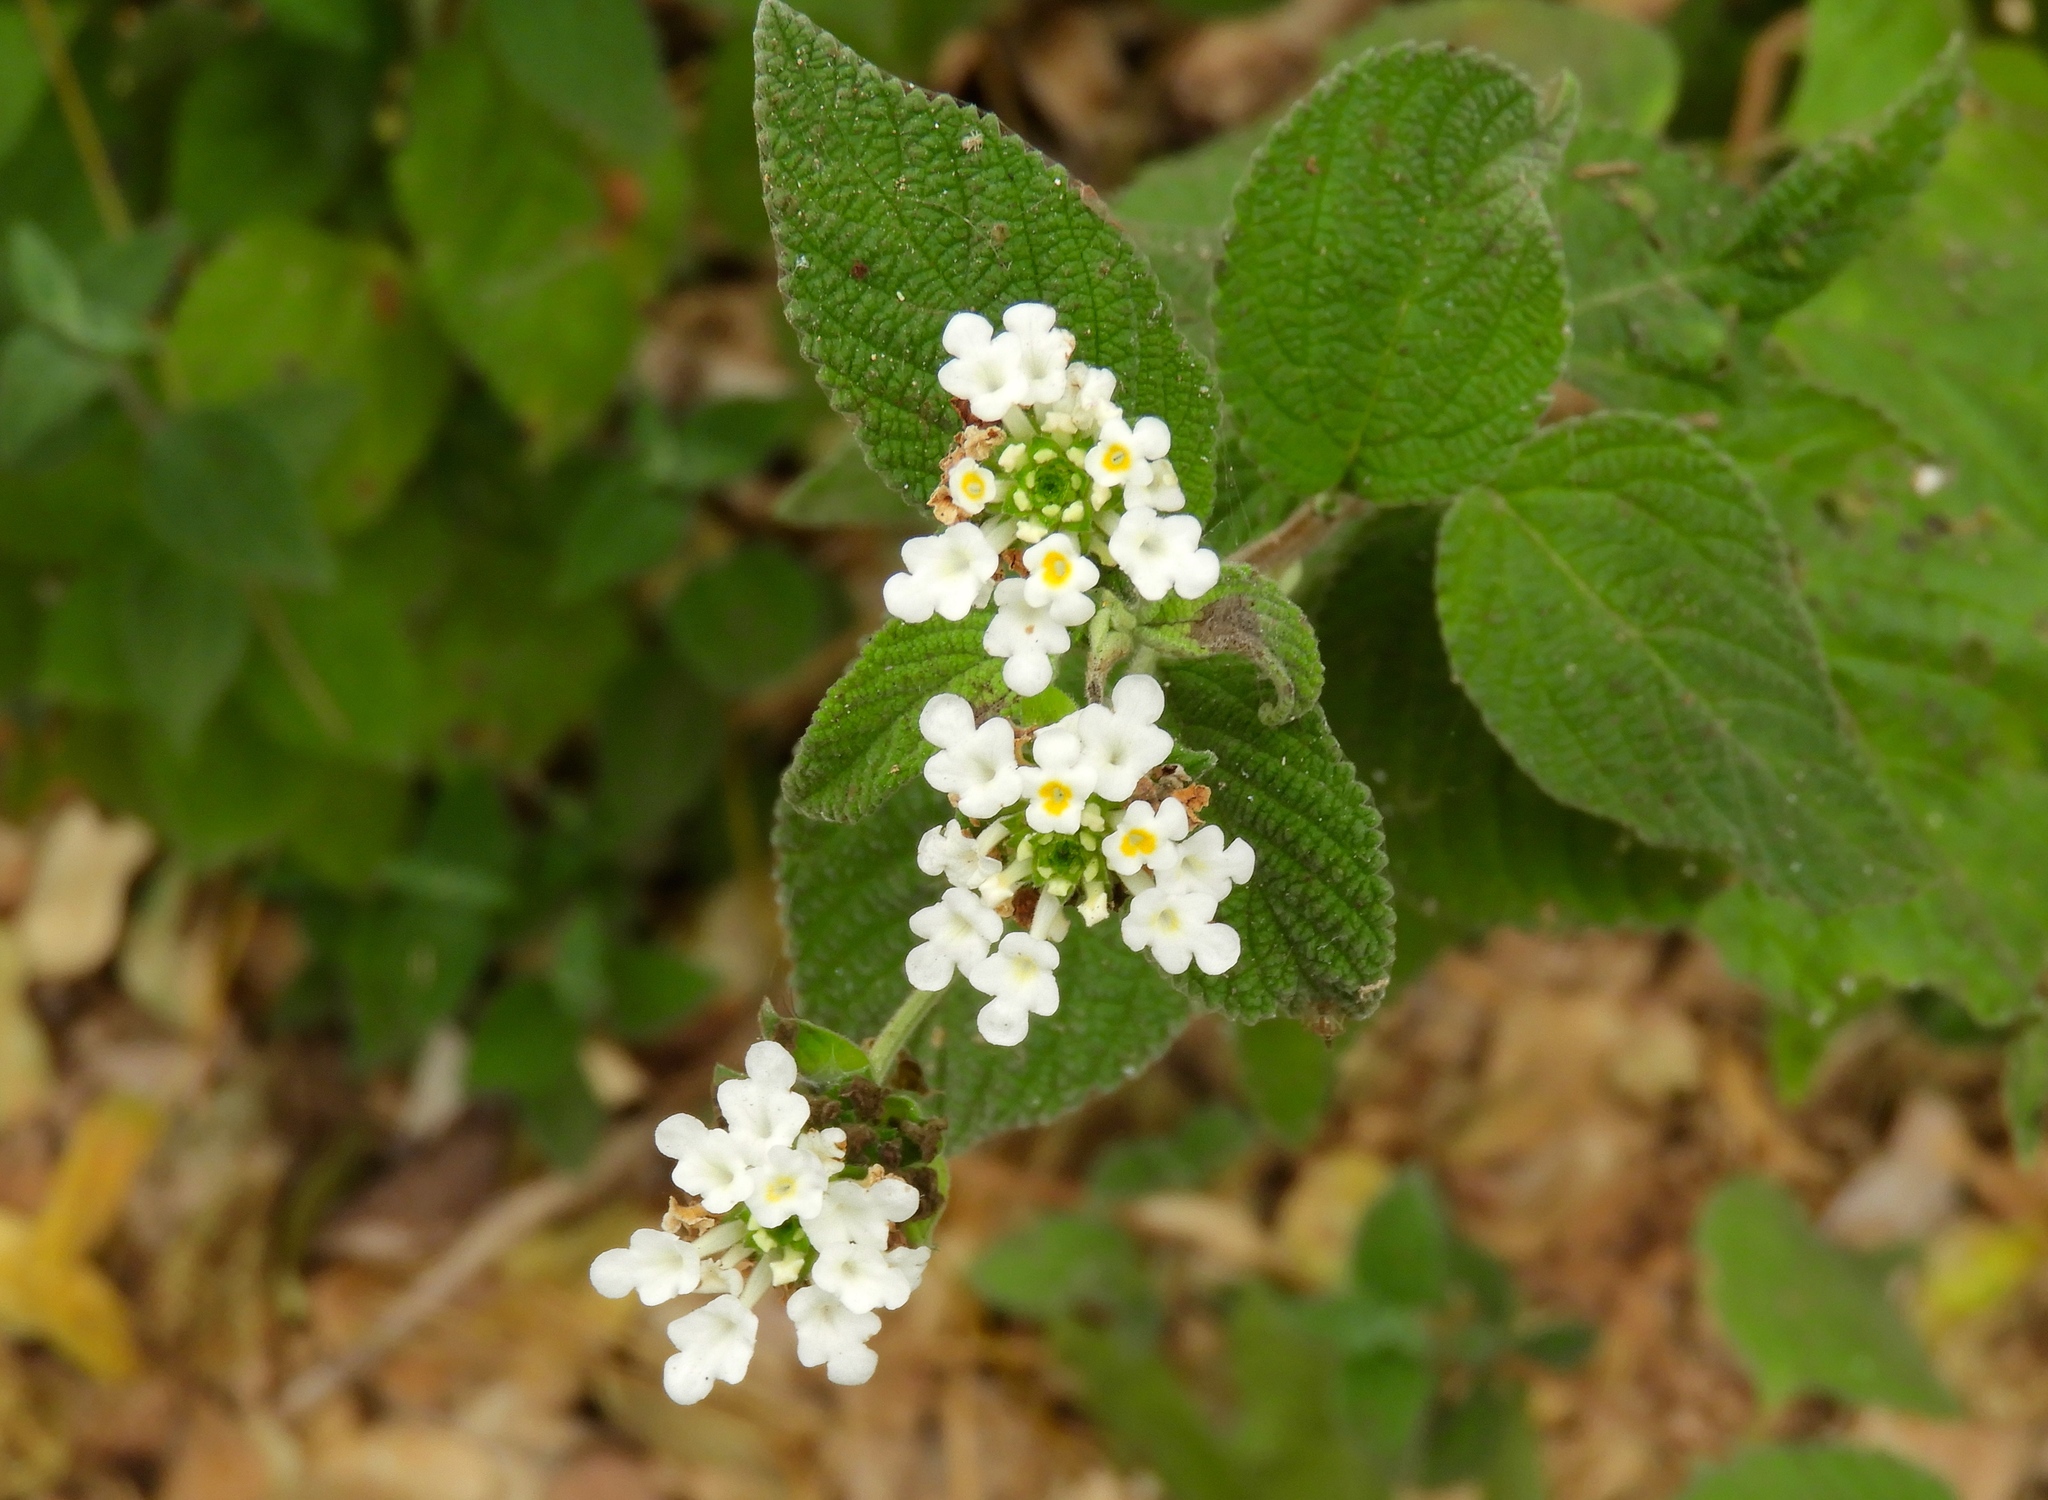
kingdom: Plantae
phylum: Tracheophyta
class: Magnoliopsida
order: Lamiales
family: Verbenaceae
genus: Lantana
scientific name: Lantana velutina
